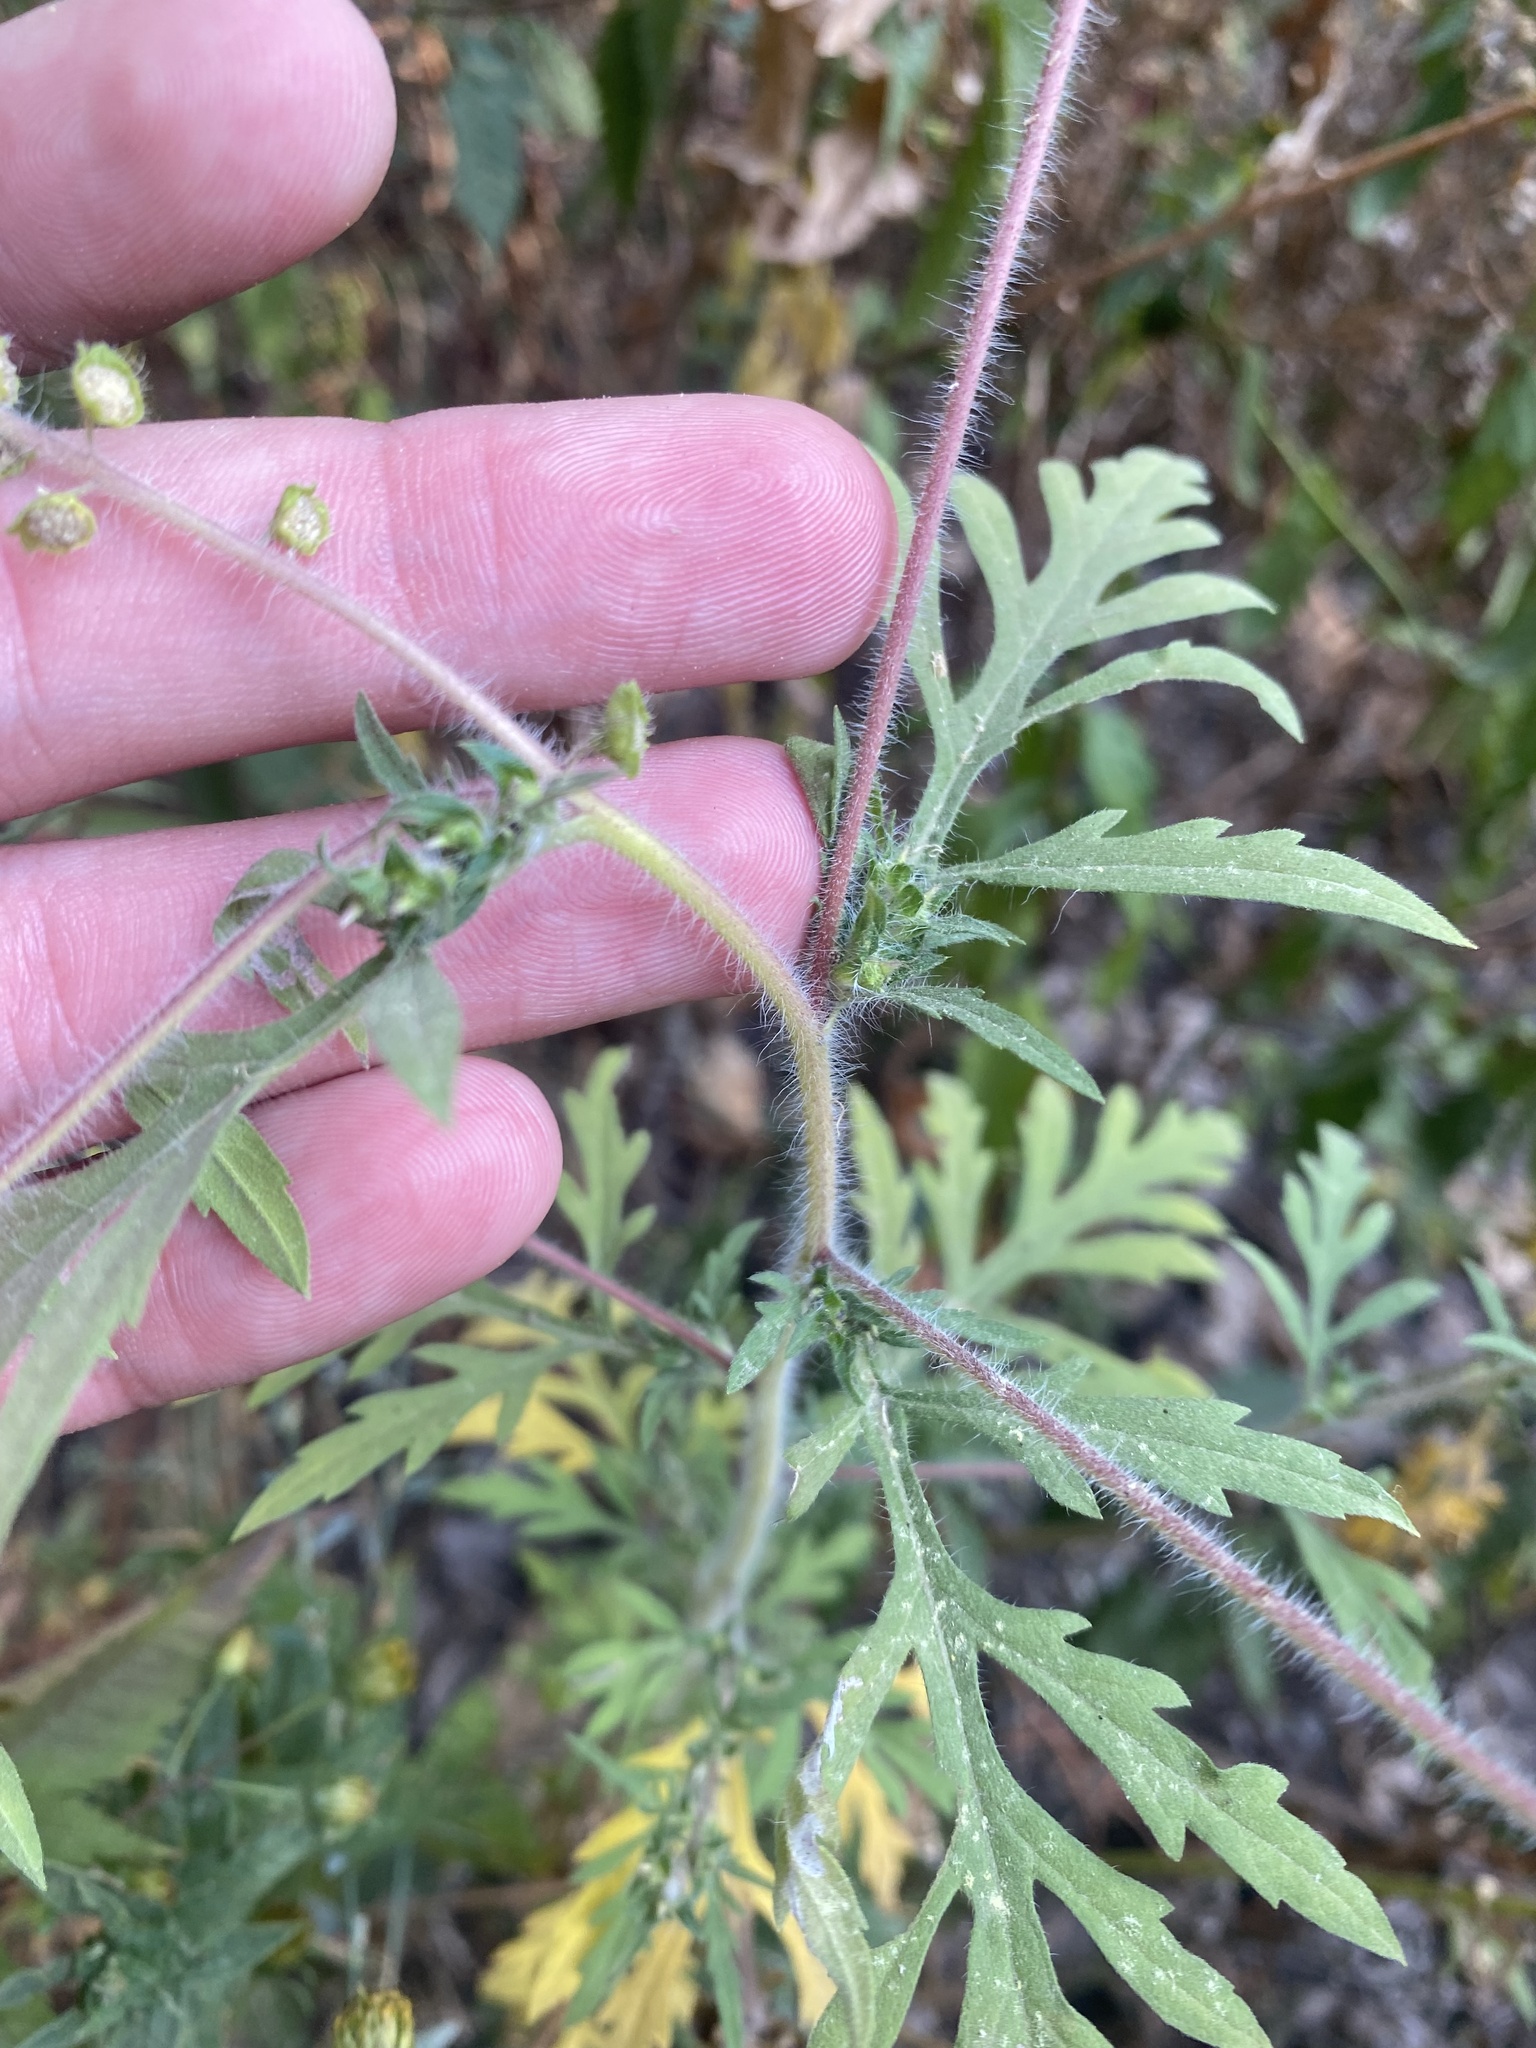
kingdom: Plantae
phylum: Tracheophyta
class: Magnoliopsida
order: Asterales
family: Asteraceae
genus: Ambrosia
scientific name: Ambrosia artemisiifolia
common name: Annual ragweed
